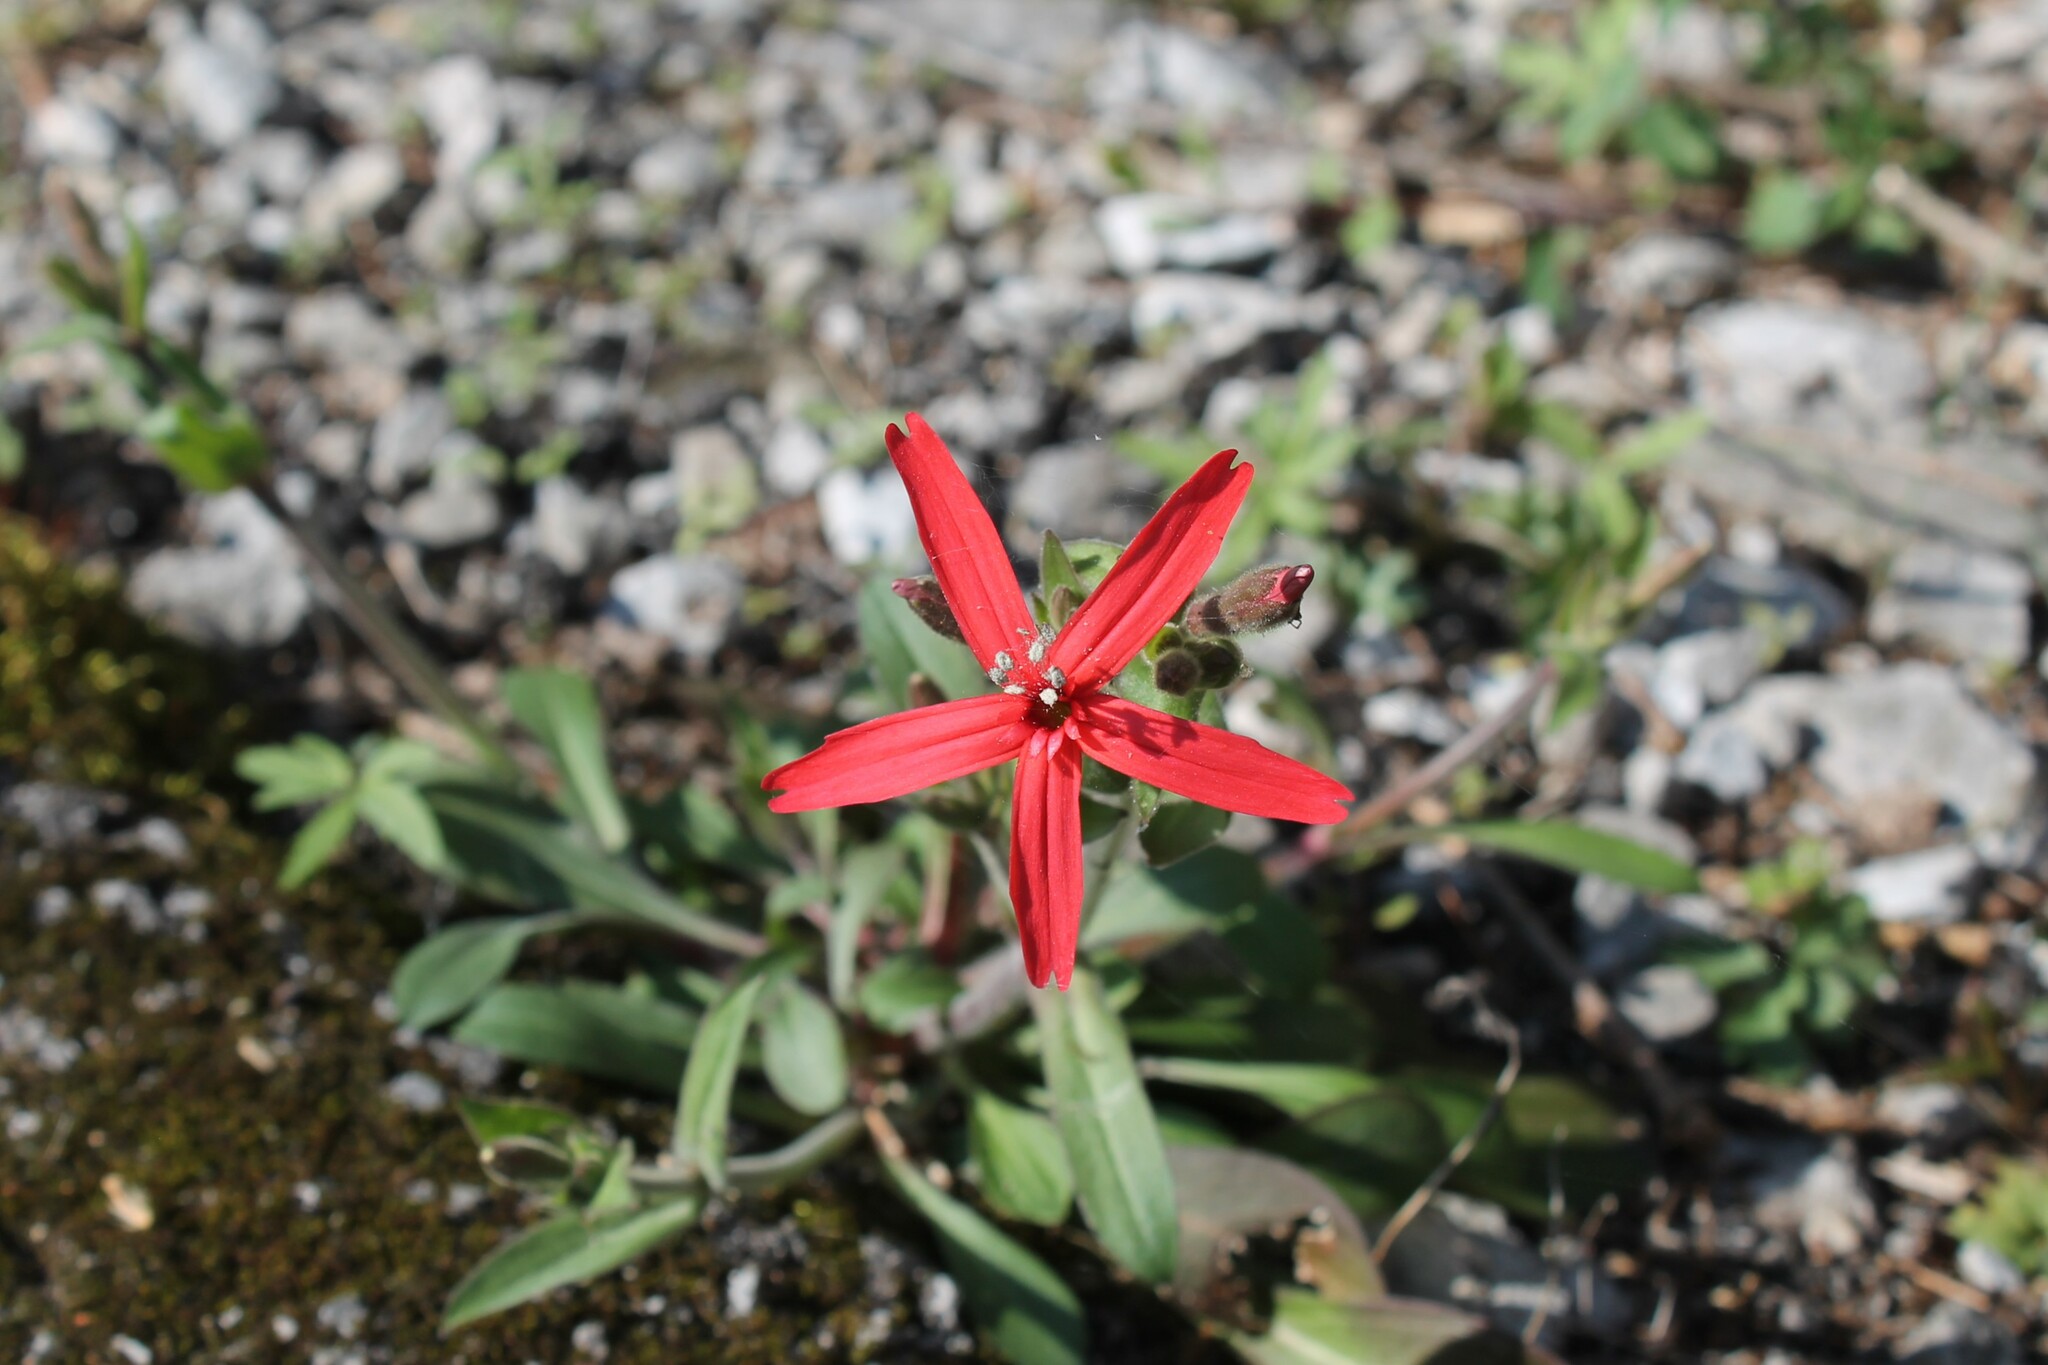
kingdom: Plantae
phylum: Tracheophyta
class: Magnoliopsida
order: Caryophyllales
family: Caryophyllaceae
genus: Silene
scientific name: Silene virginica
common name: Fire-pink
